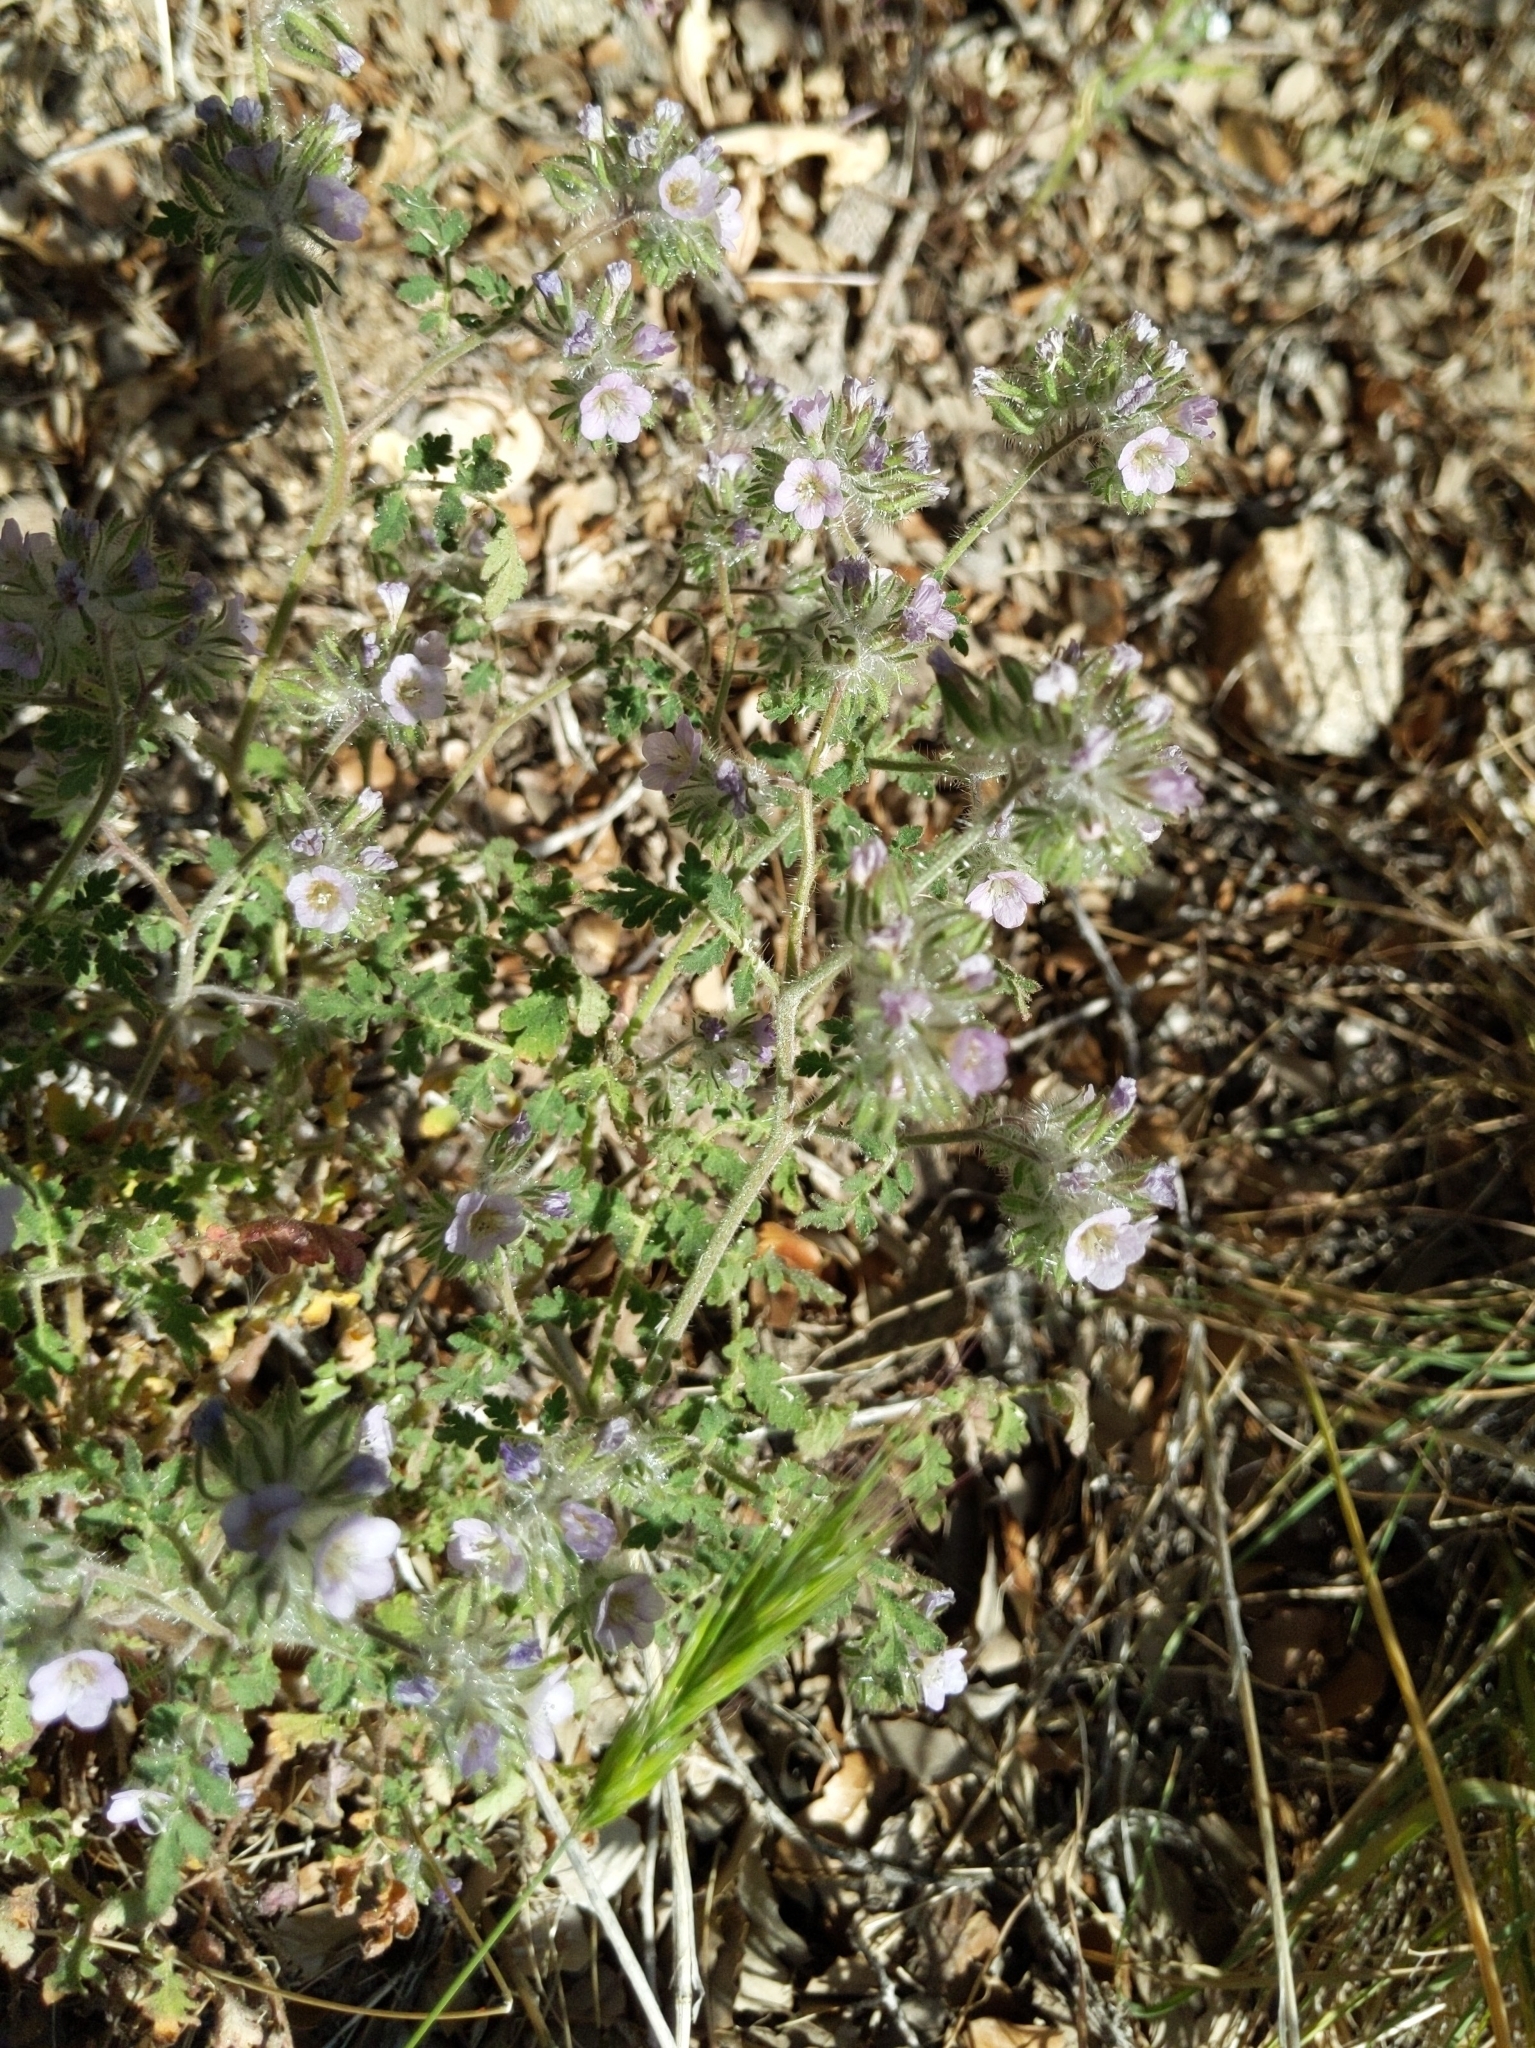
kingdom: Plantae
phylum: Tracheophyta
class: Magnoliopsida
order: Boraginales
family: Hydrophyllaceae
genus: Phacelia
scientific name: Phacelia cryptantha
